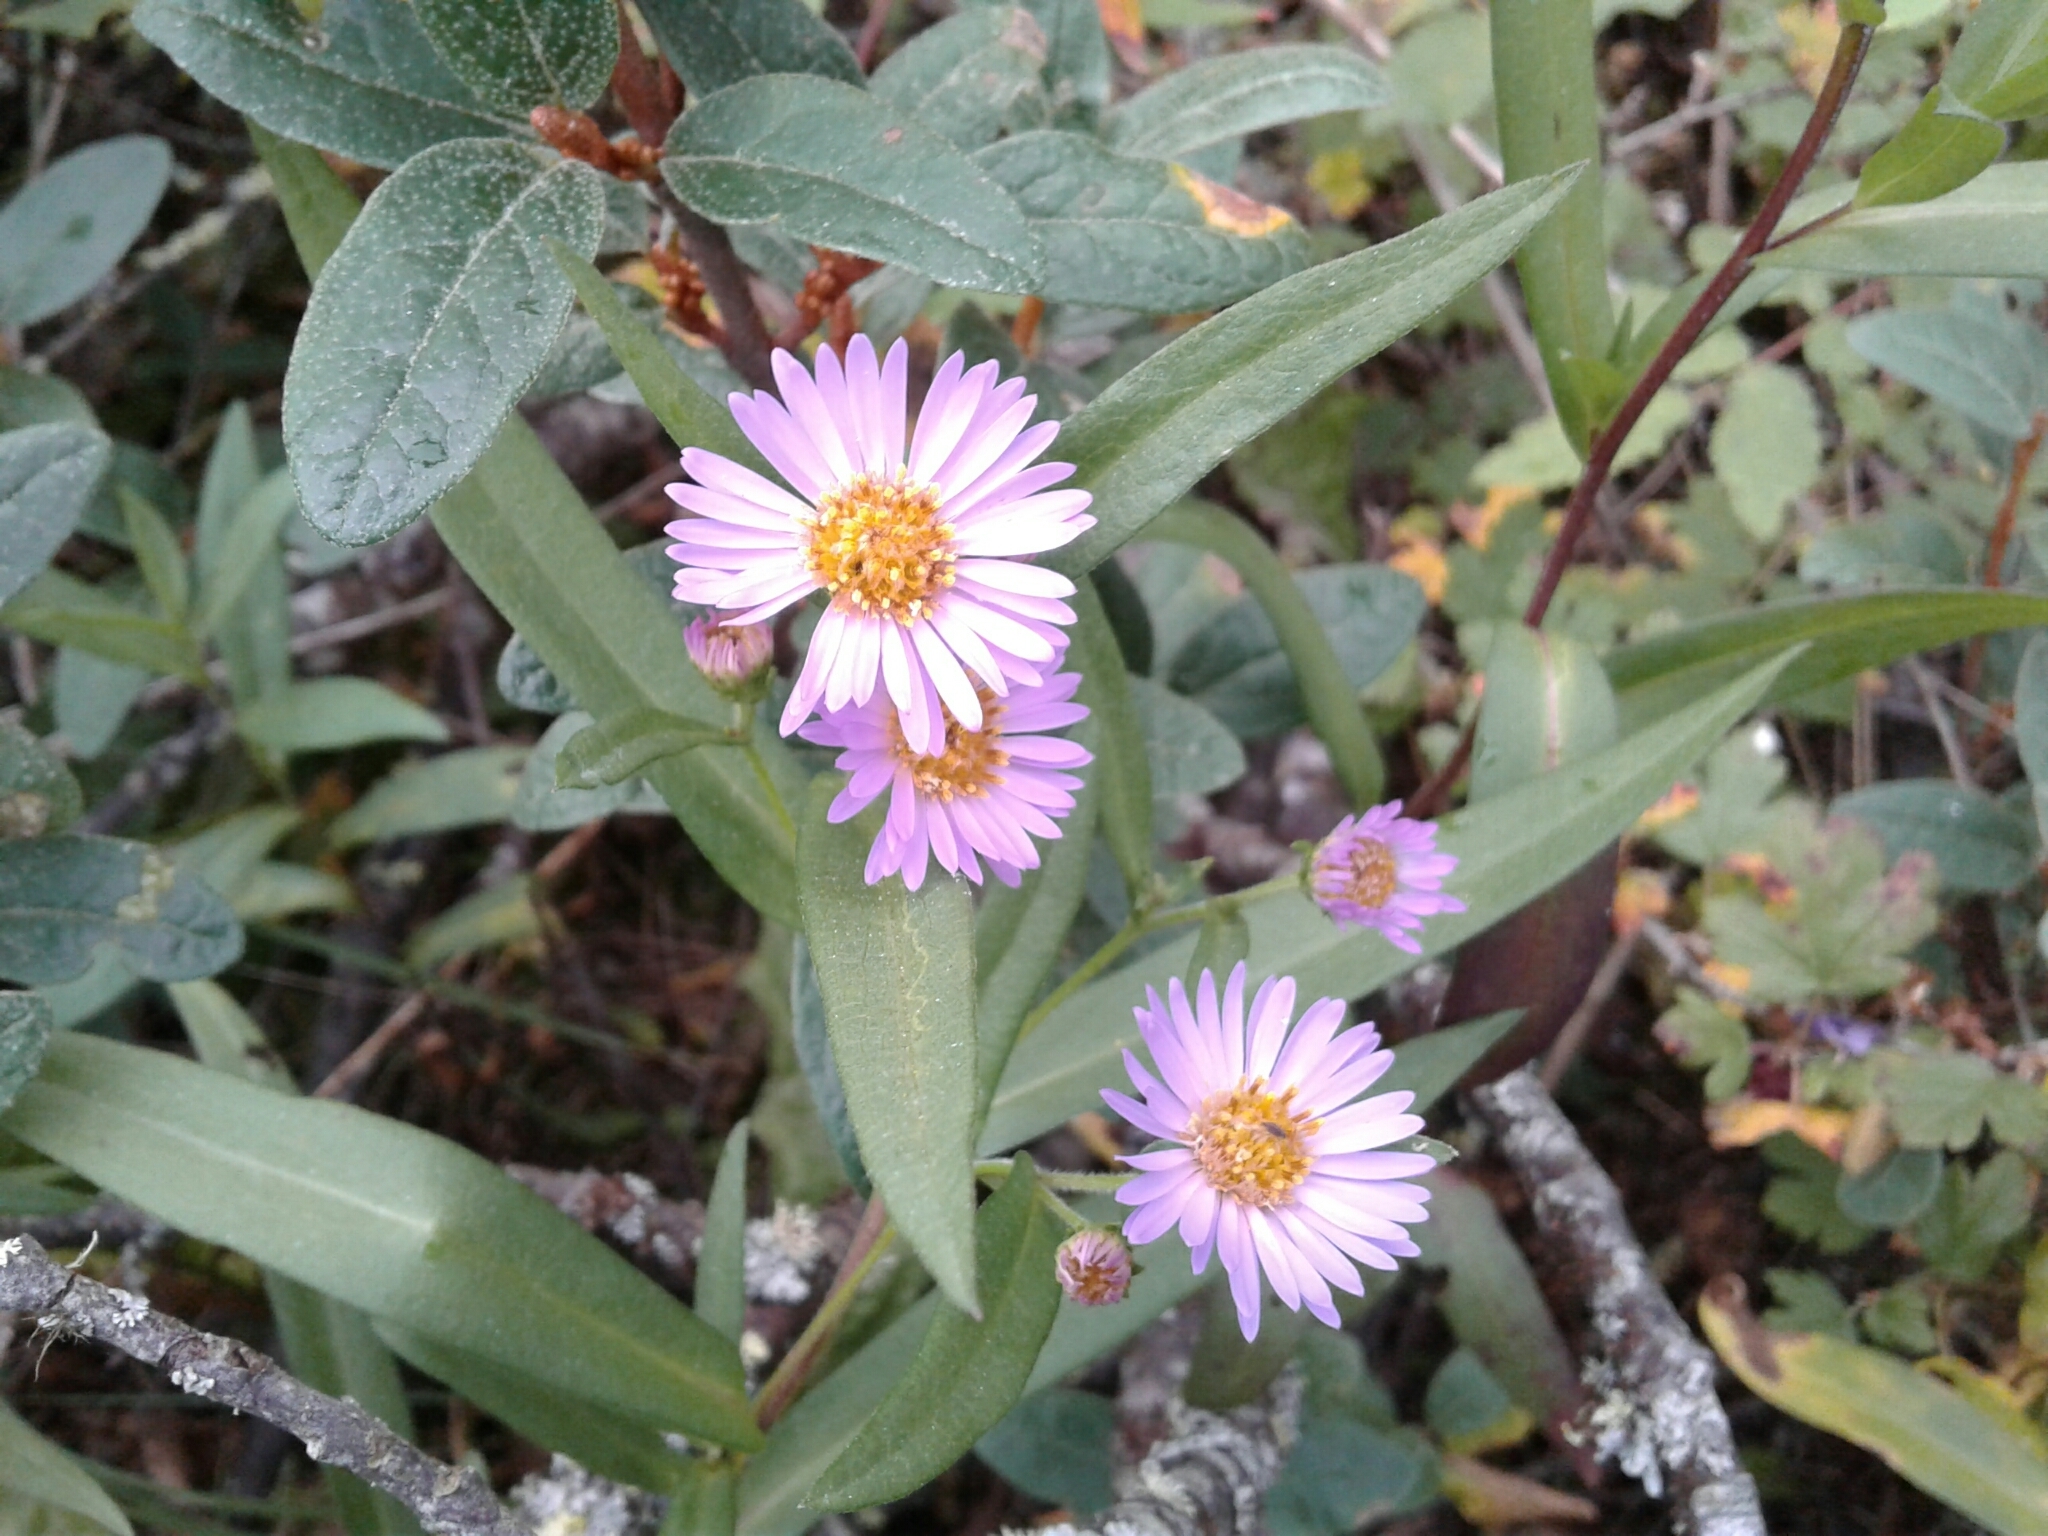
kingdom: Plantae
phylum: Tracheophyta
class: Magnoliopsida
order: Asterales
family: Asteraceae
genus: Symphyotrichum
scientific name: Symphyotrichum robynsianum
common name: Robyns' aster
